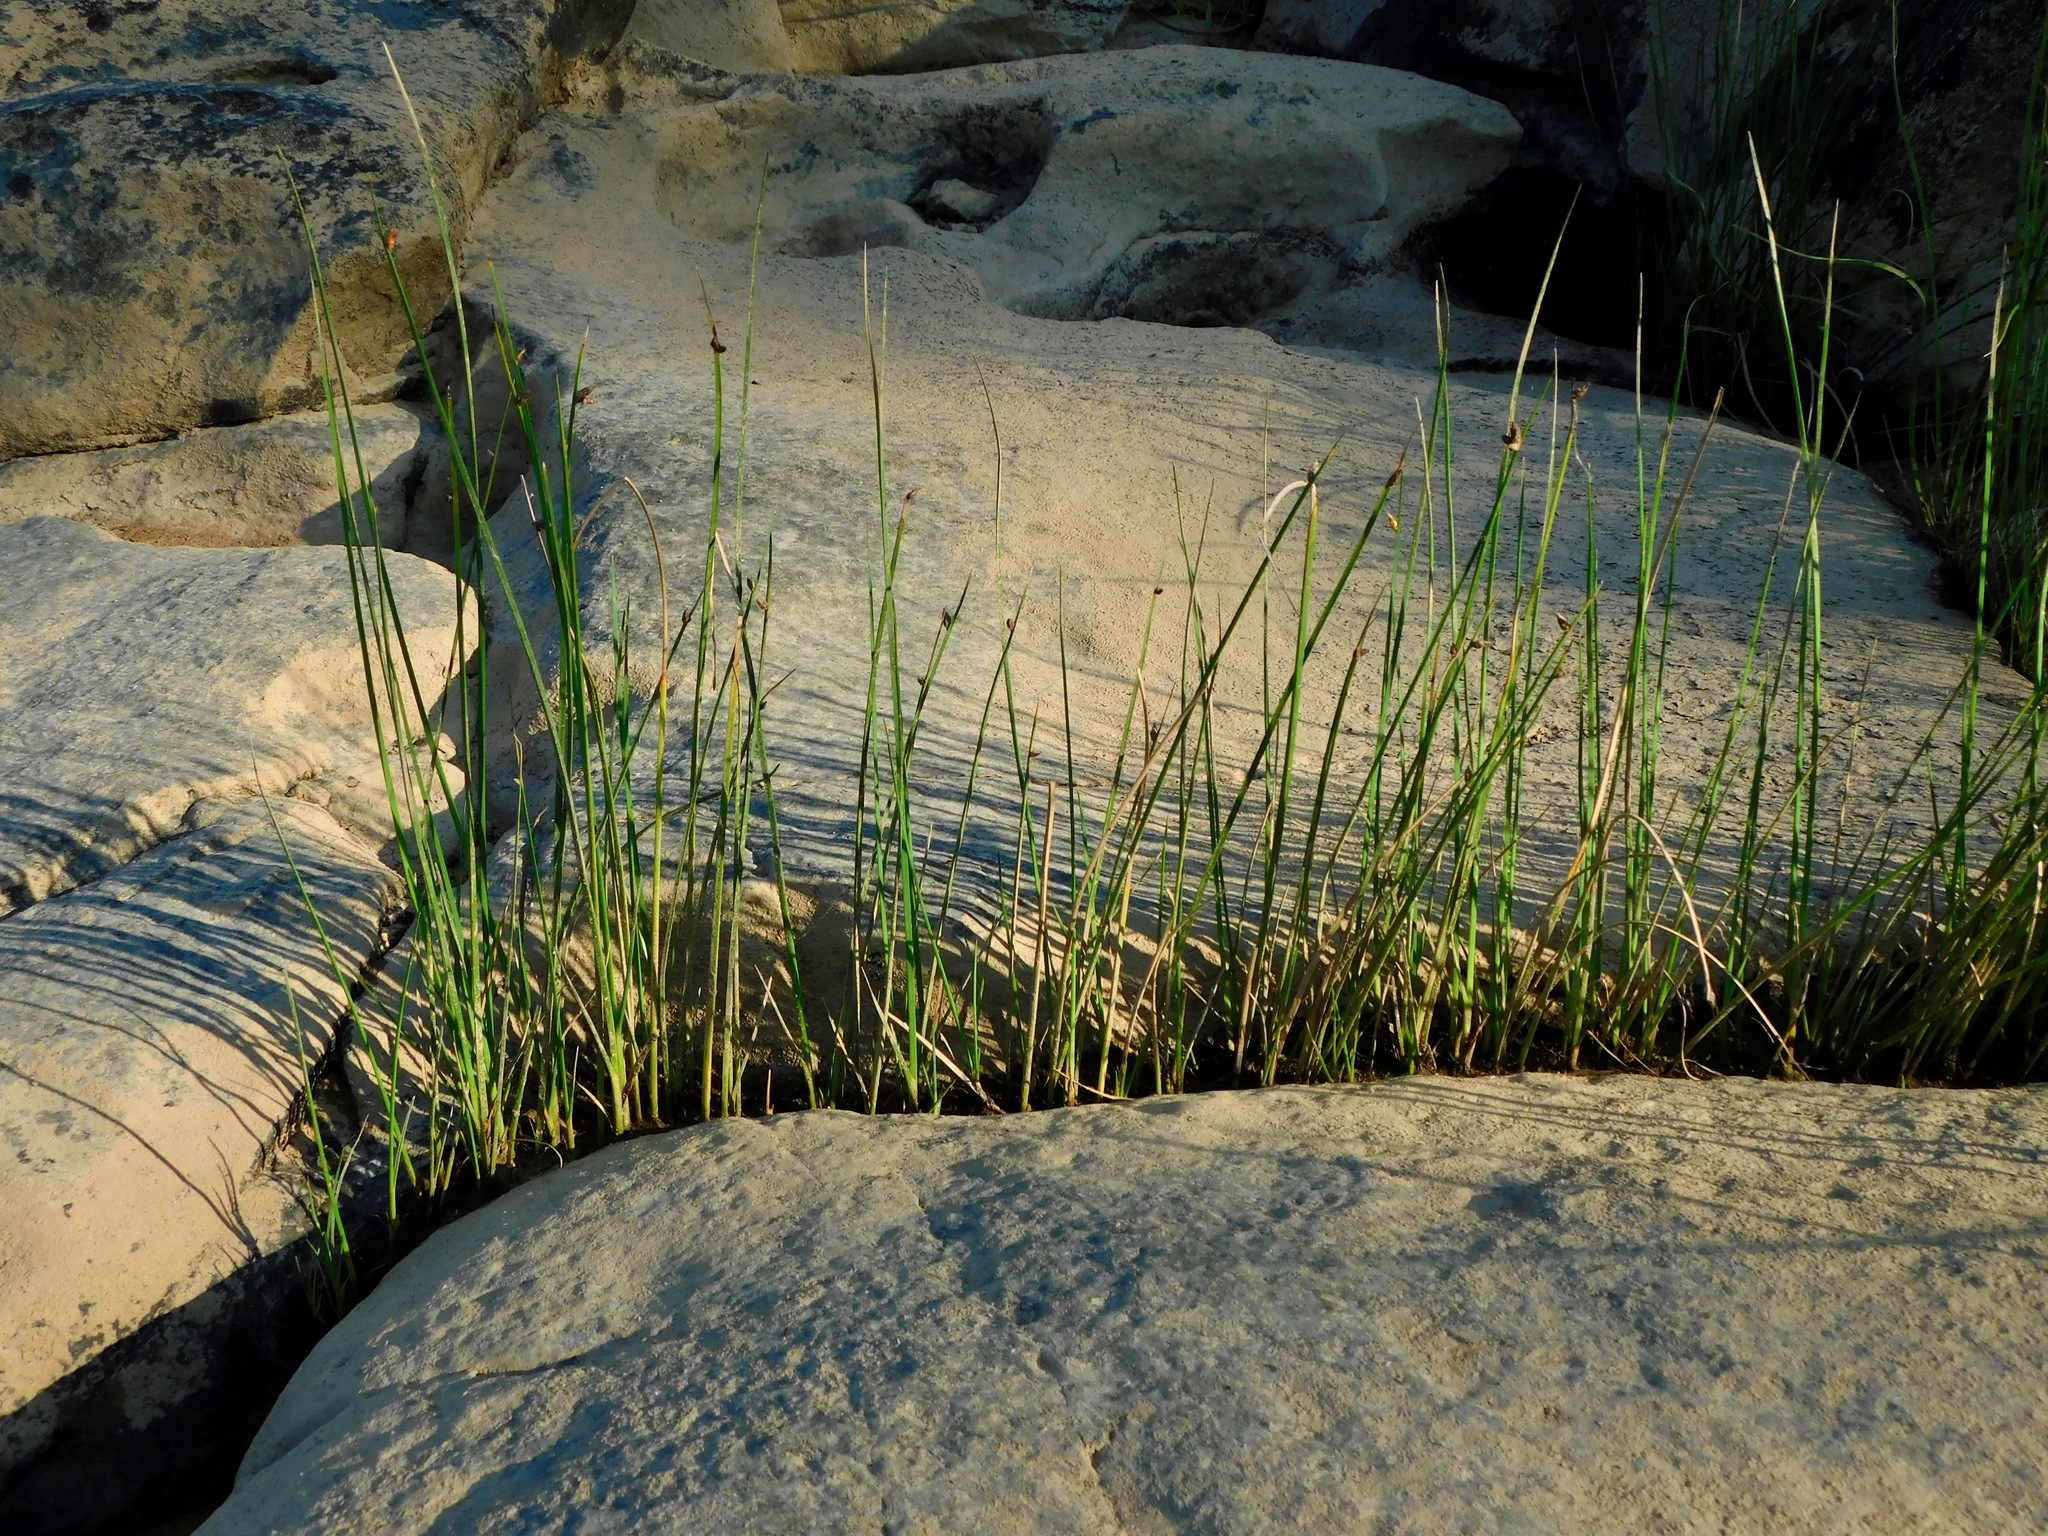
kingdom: Plantae
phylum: Tracheophyta
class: Liliopsida
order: Poales
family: Cyperaceae
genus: Schoenoplectus
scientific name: Schoenoplectus pungens
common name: Sharp club-rush
